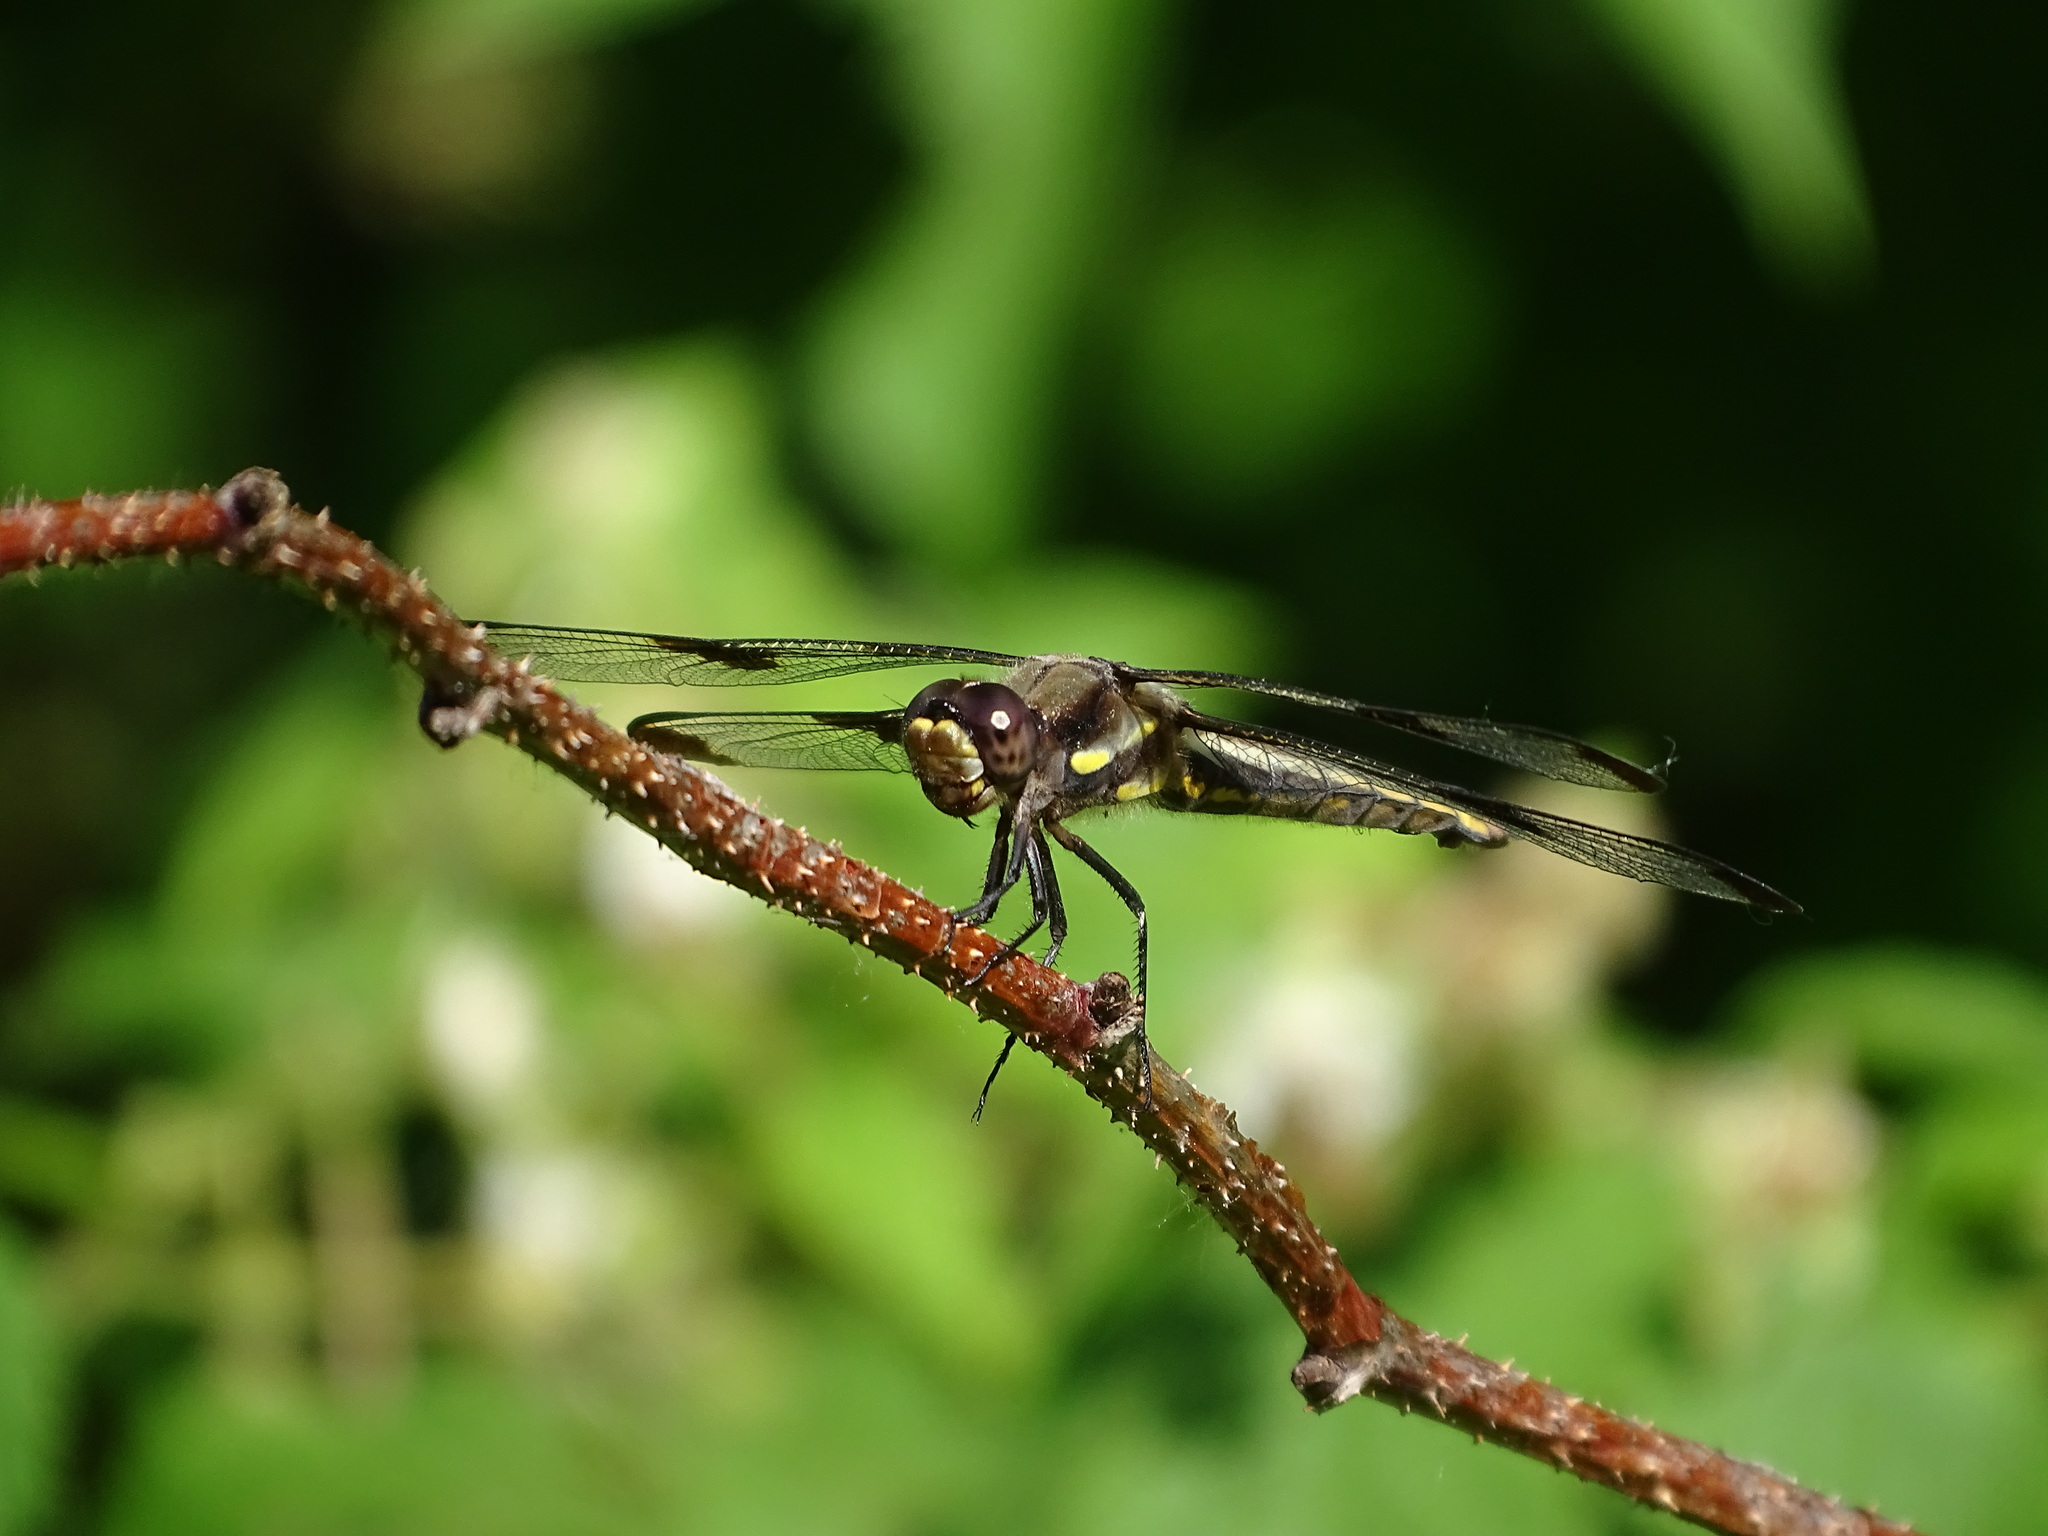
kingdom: Animalia
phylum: Arthropoda
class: Insecta
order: Odonata
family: Libellulidae
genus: Libellula
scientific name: Libellula pulchella
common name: Twelve-spotted skimmer
